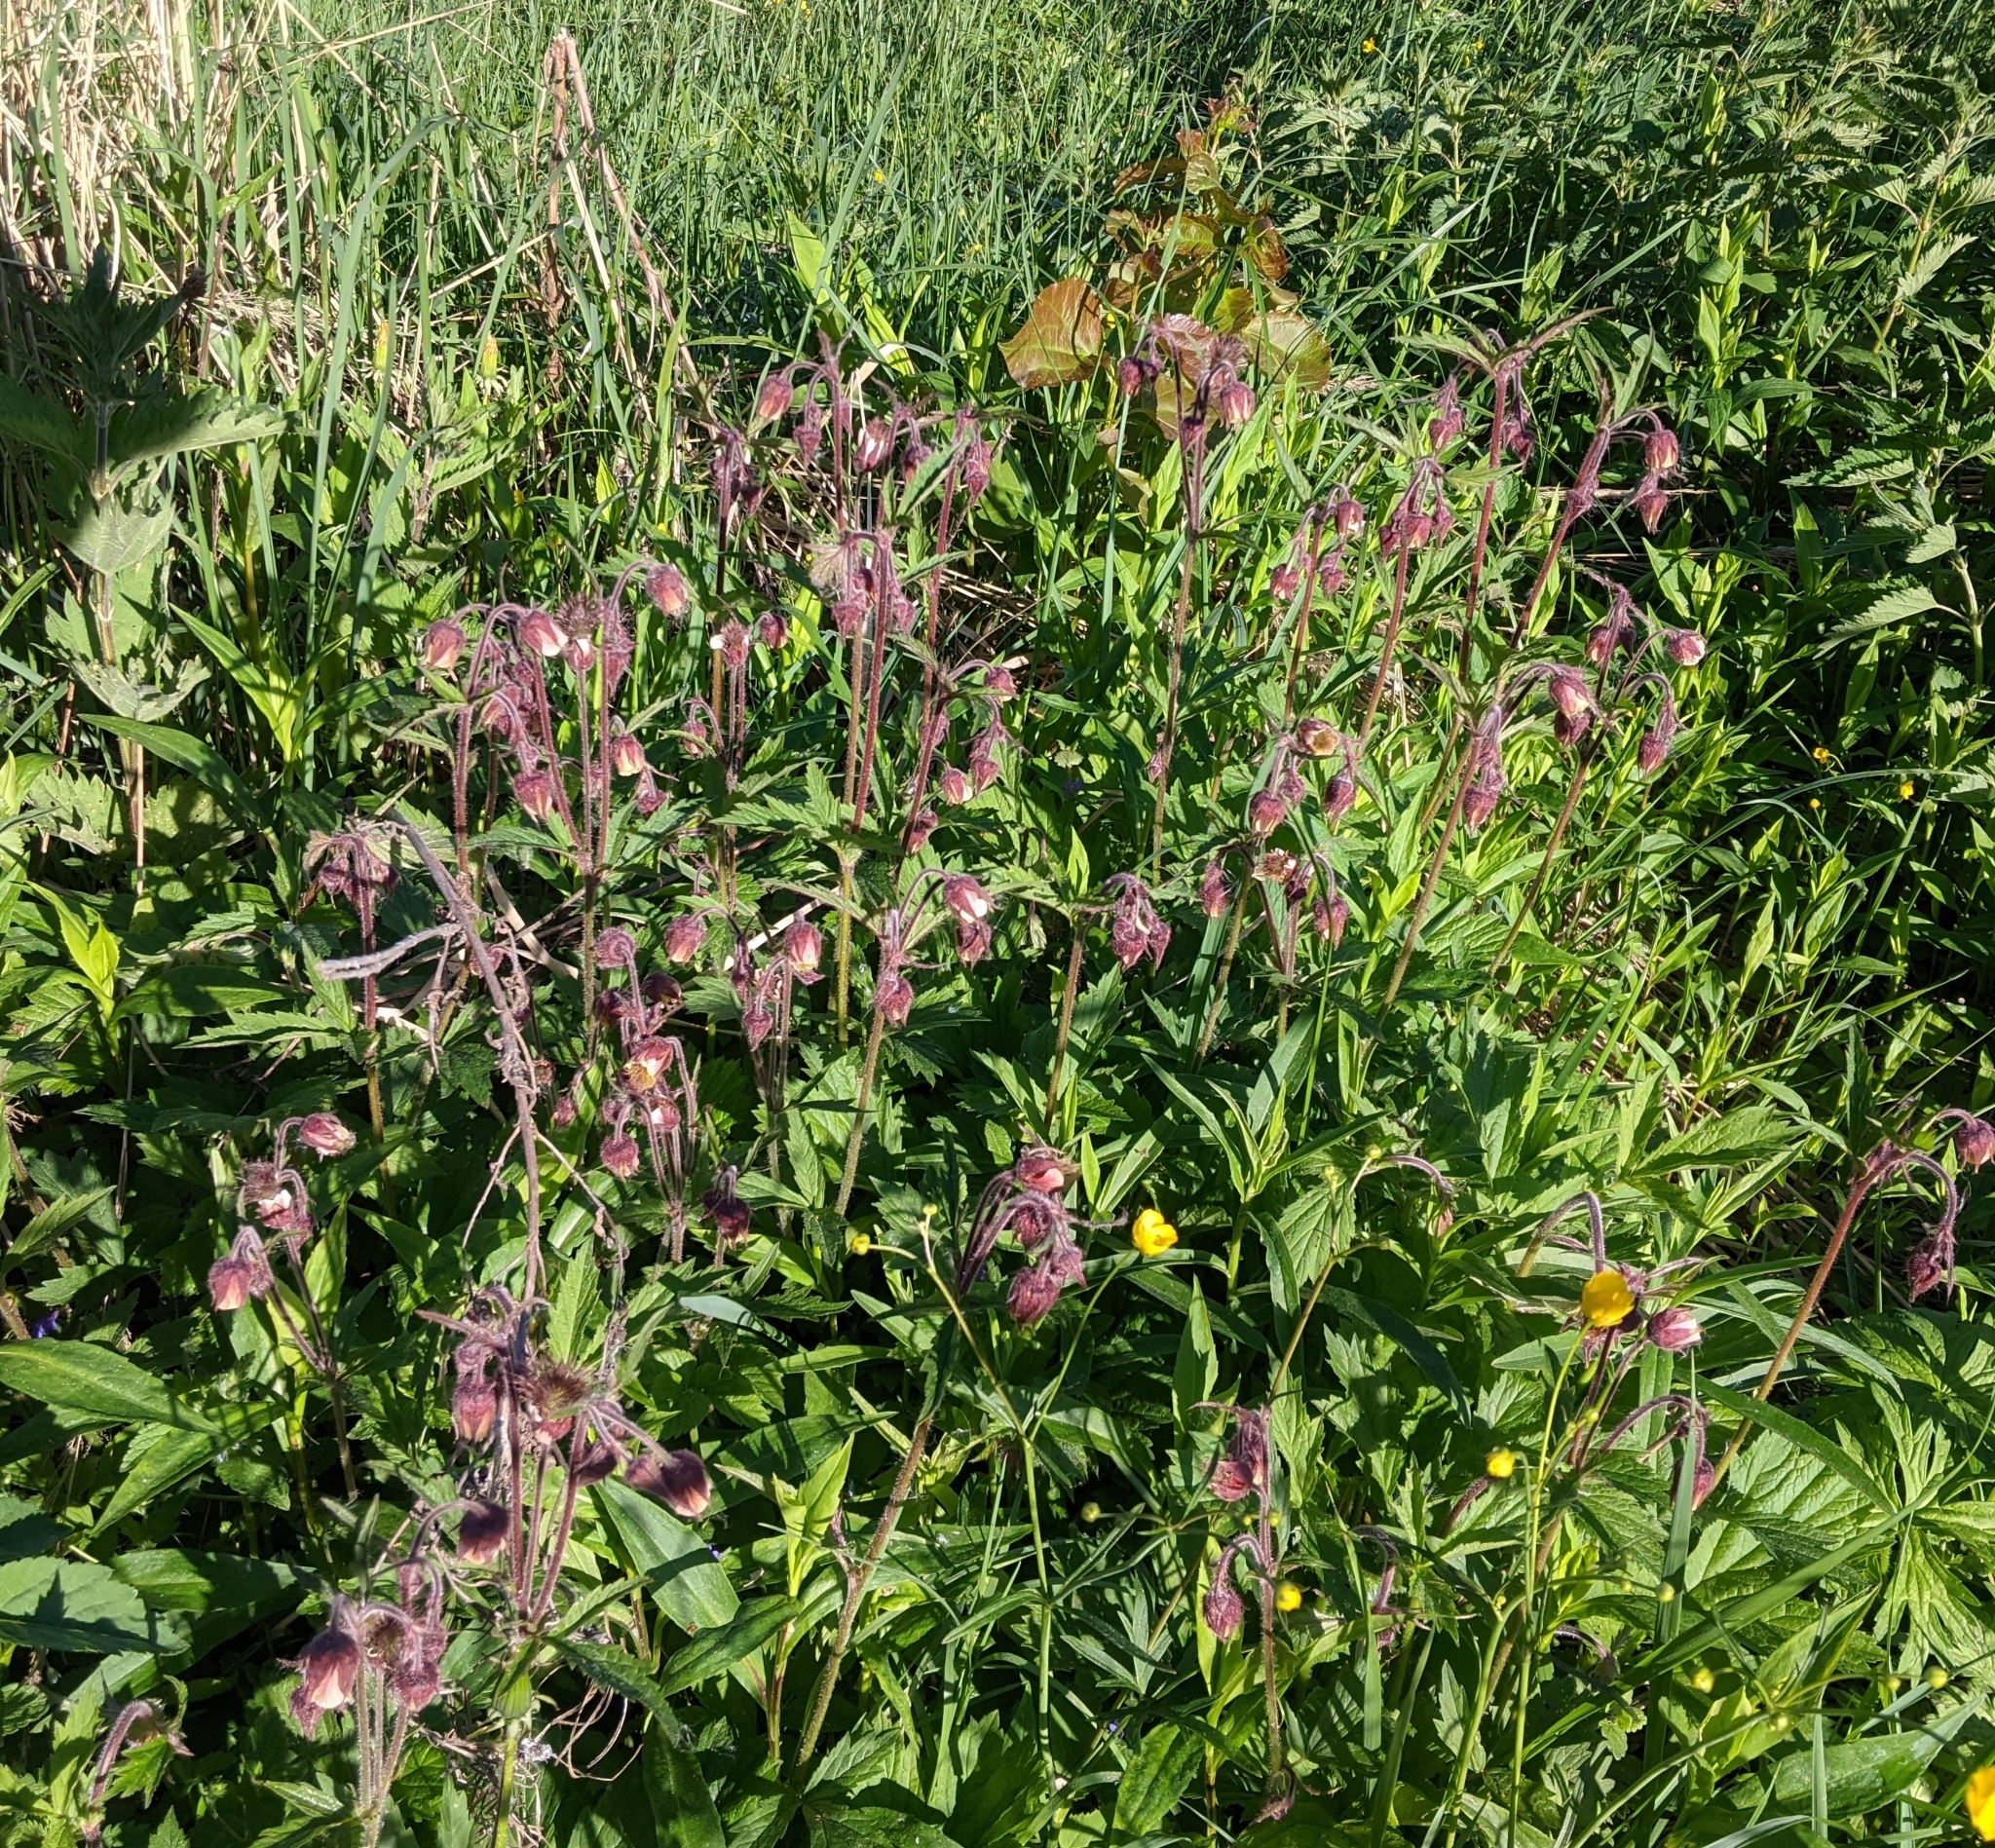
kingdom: Plantae
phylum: Tracheophyta
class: Magnoliopsida
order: Rosales
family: Rosaceae
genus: Geum
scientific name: Geum rivale
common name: Water avens
